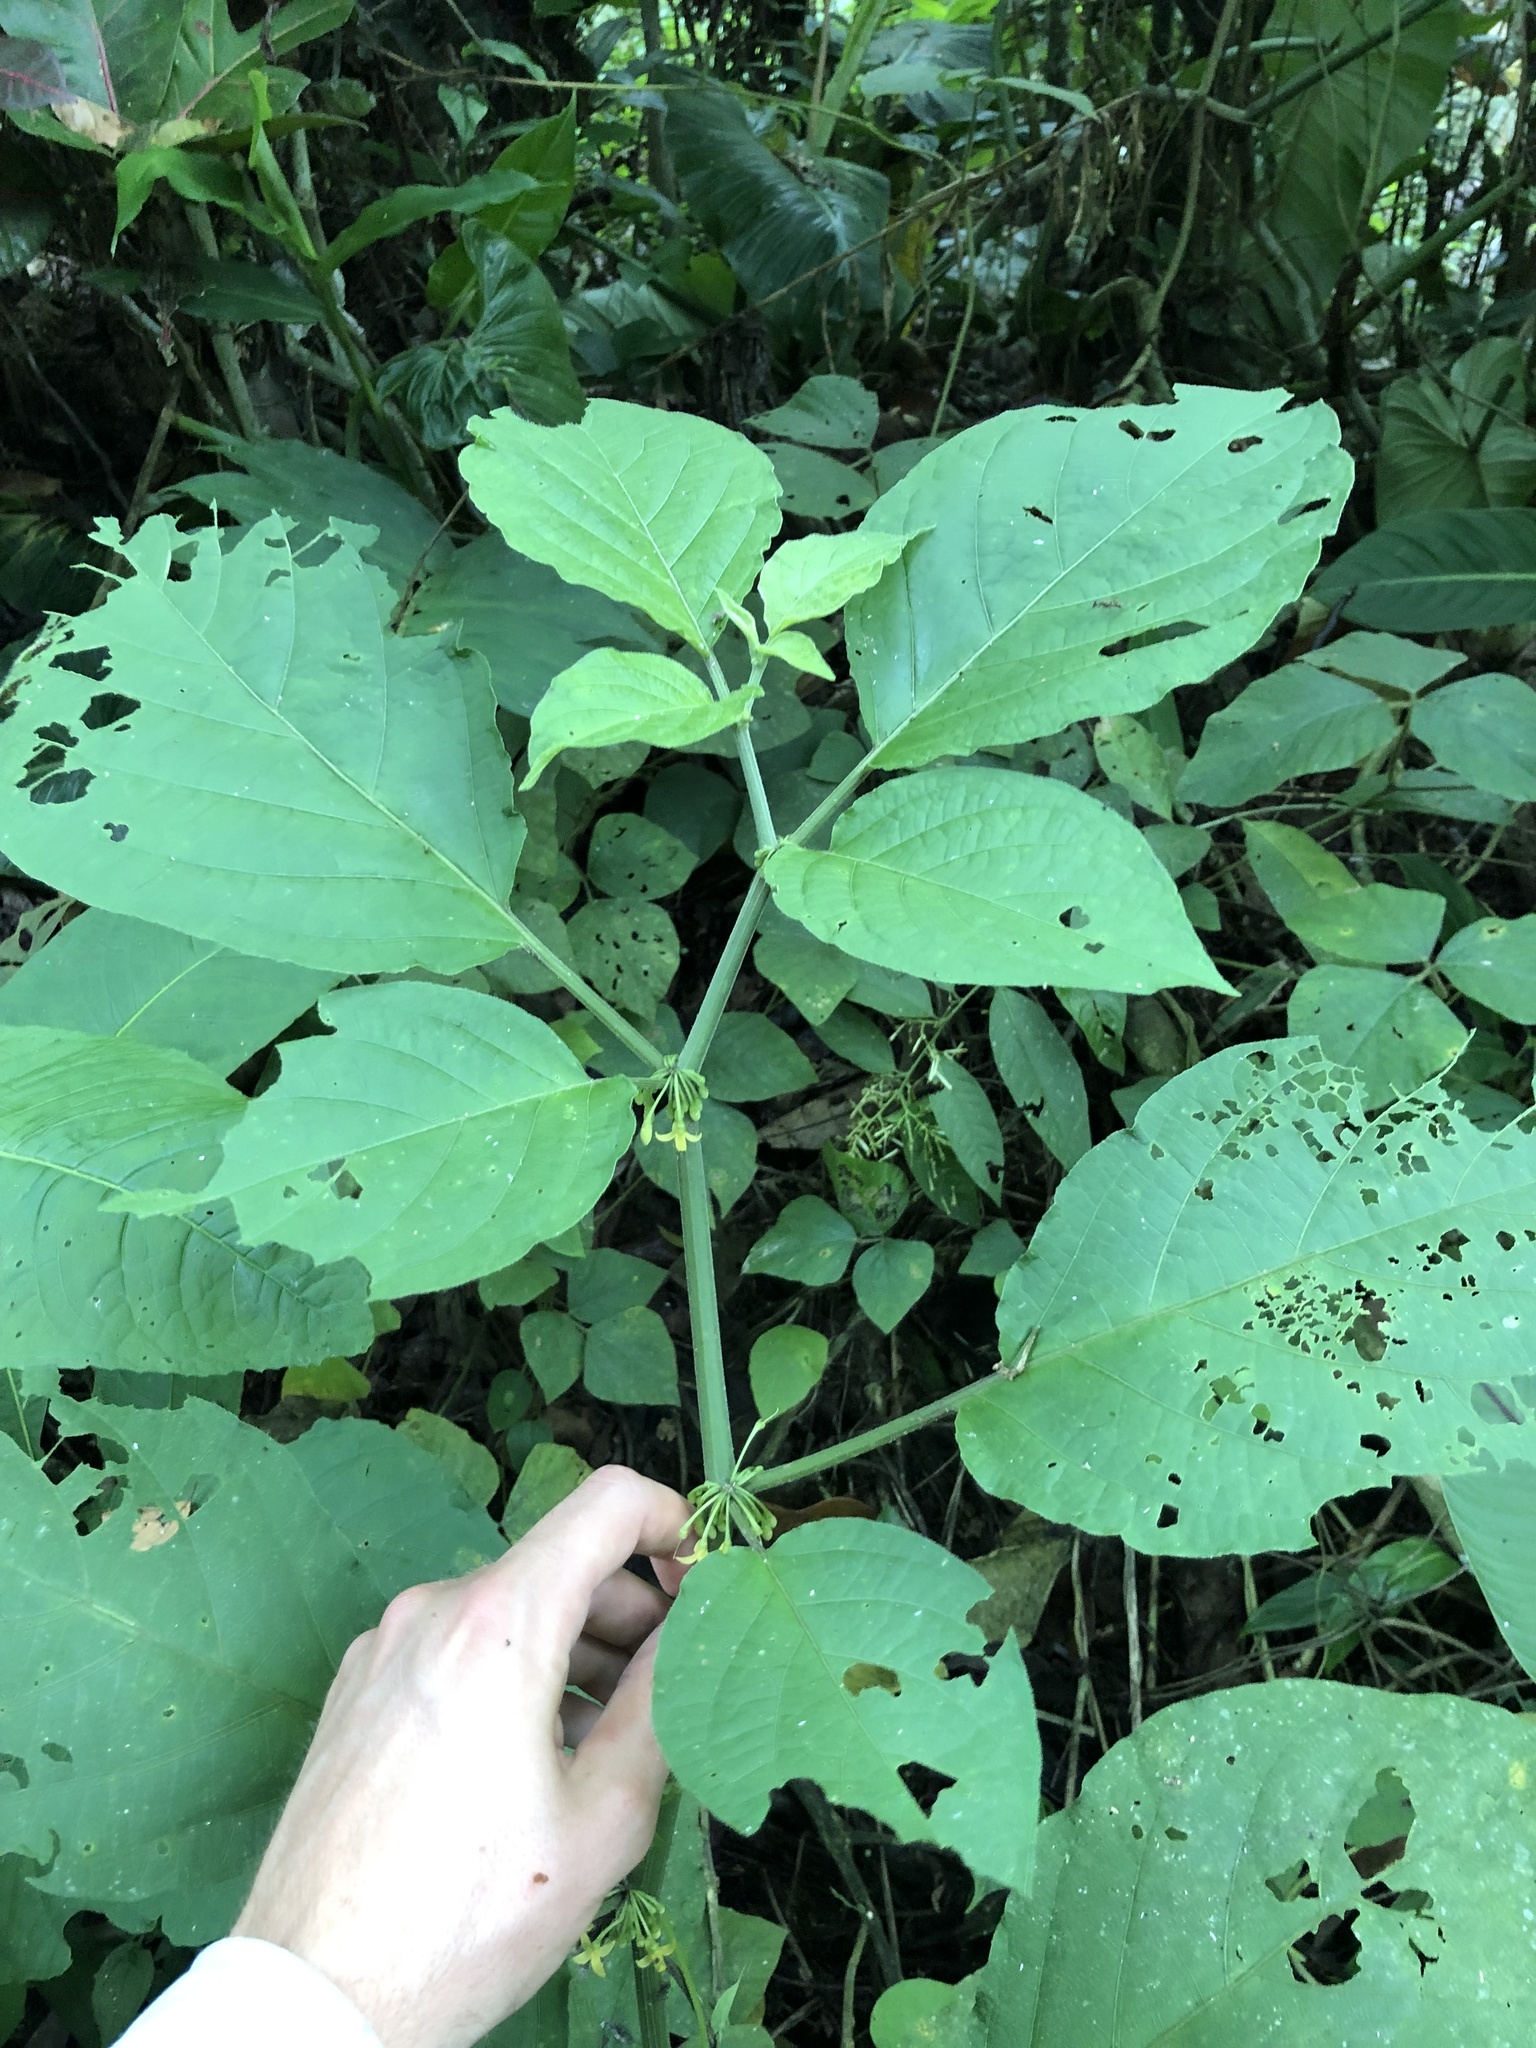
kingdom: Plantae
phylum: Tracheophyta
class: Magnoliopsida
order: Solanales
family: Solanaceae
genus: Witheringia
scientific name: Witheringia solanacea
